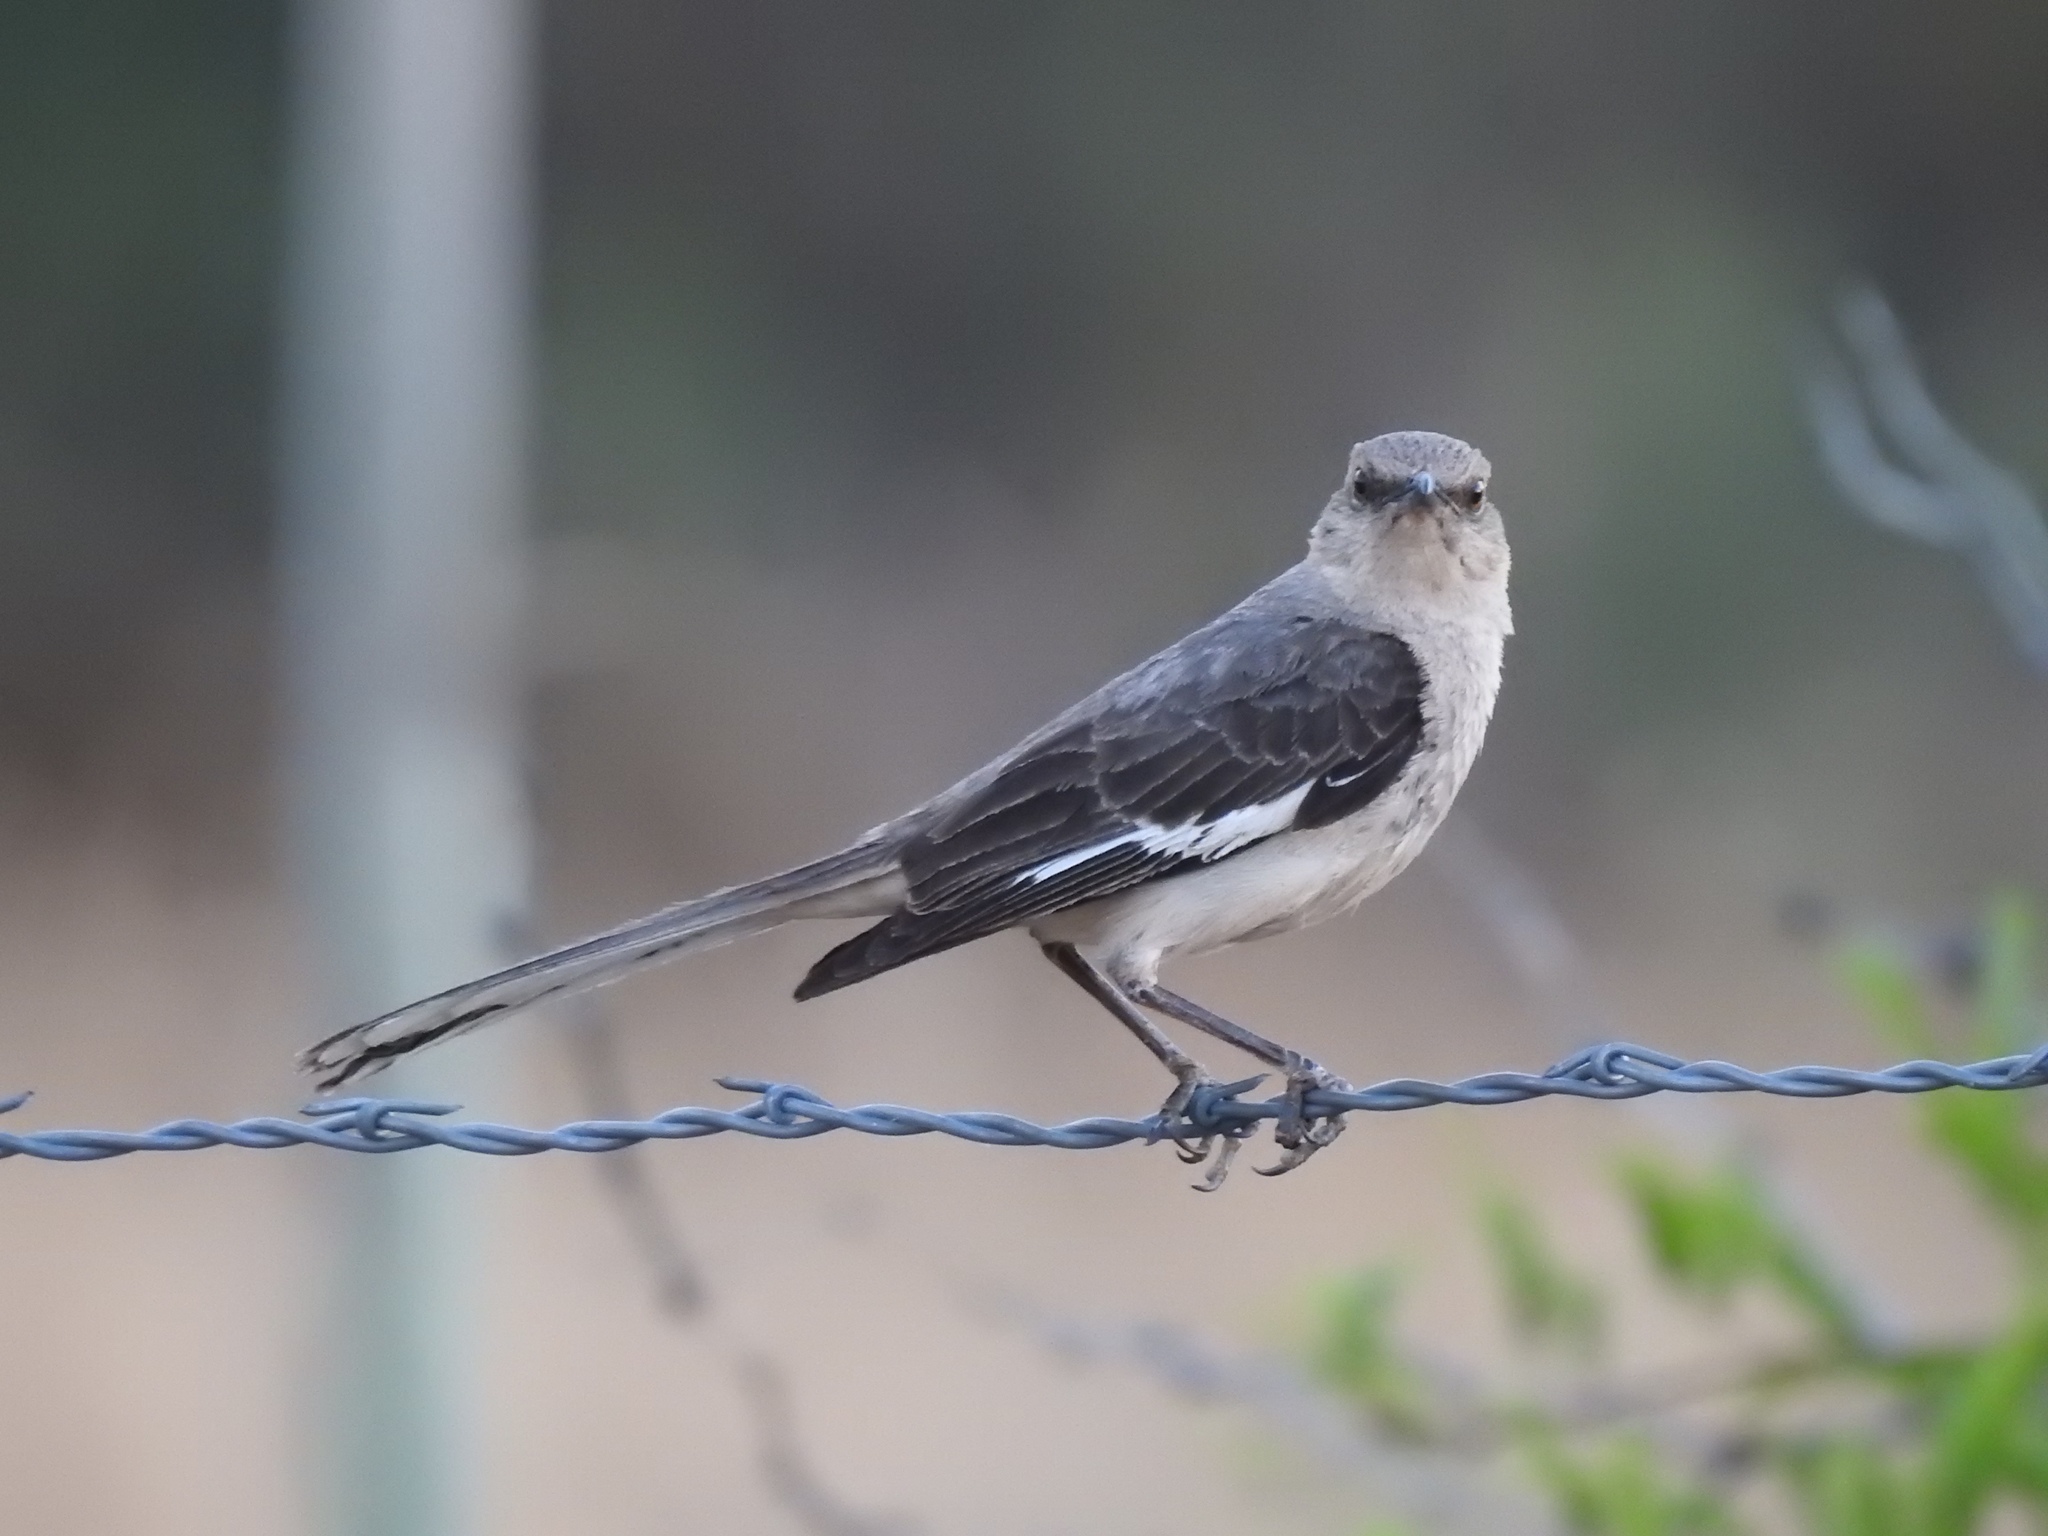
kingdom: Animalia
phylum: Chordata
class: Aves
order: Passeriformes
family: Mimidae
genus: Mimus
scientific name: Mimus polyglottos
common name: Northern mockingbird
